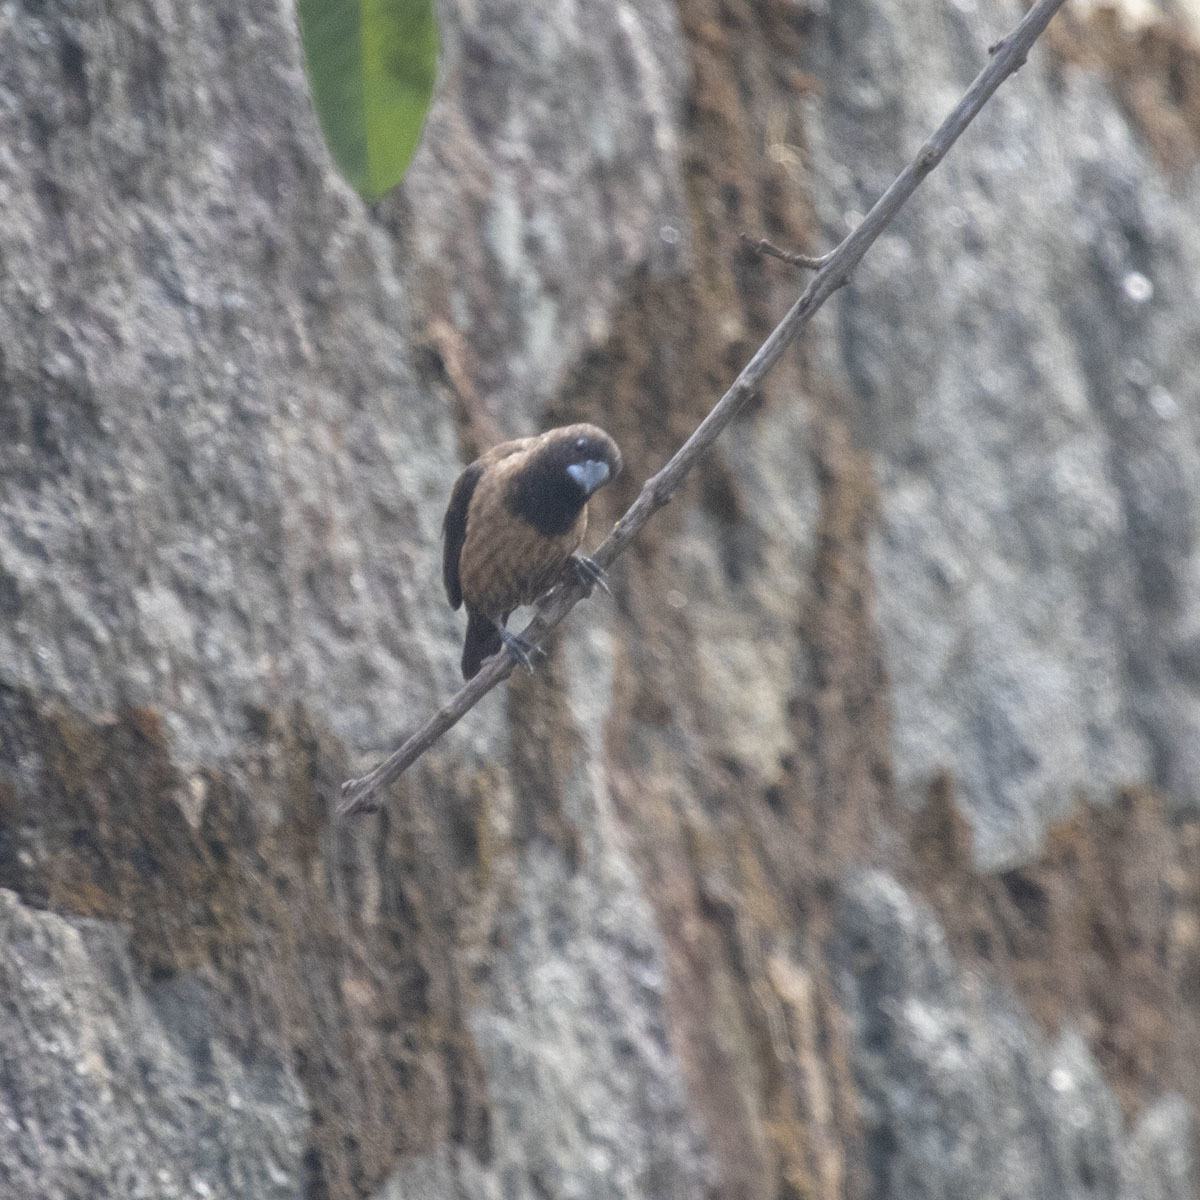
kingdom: Animalia
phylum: Chordata
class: Aves
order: Passeriformes
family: Estrildidae
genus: Lonchura
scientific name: Lonchura kelaarti
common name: Black-throated munia
